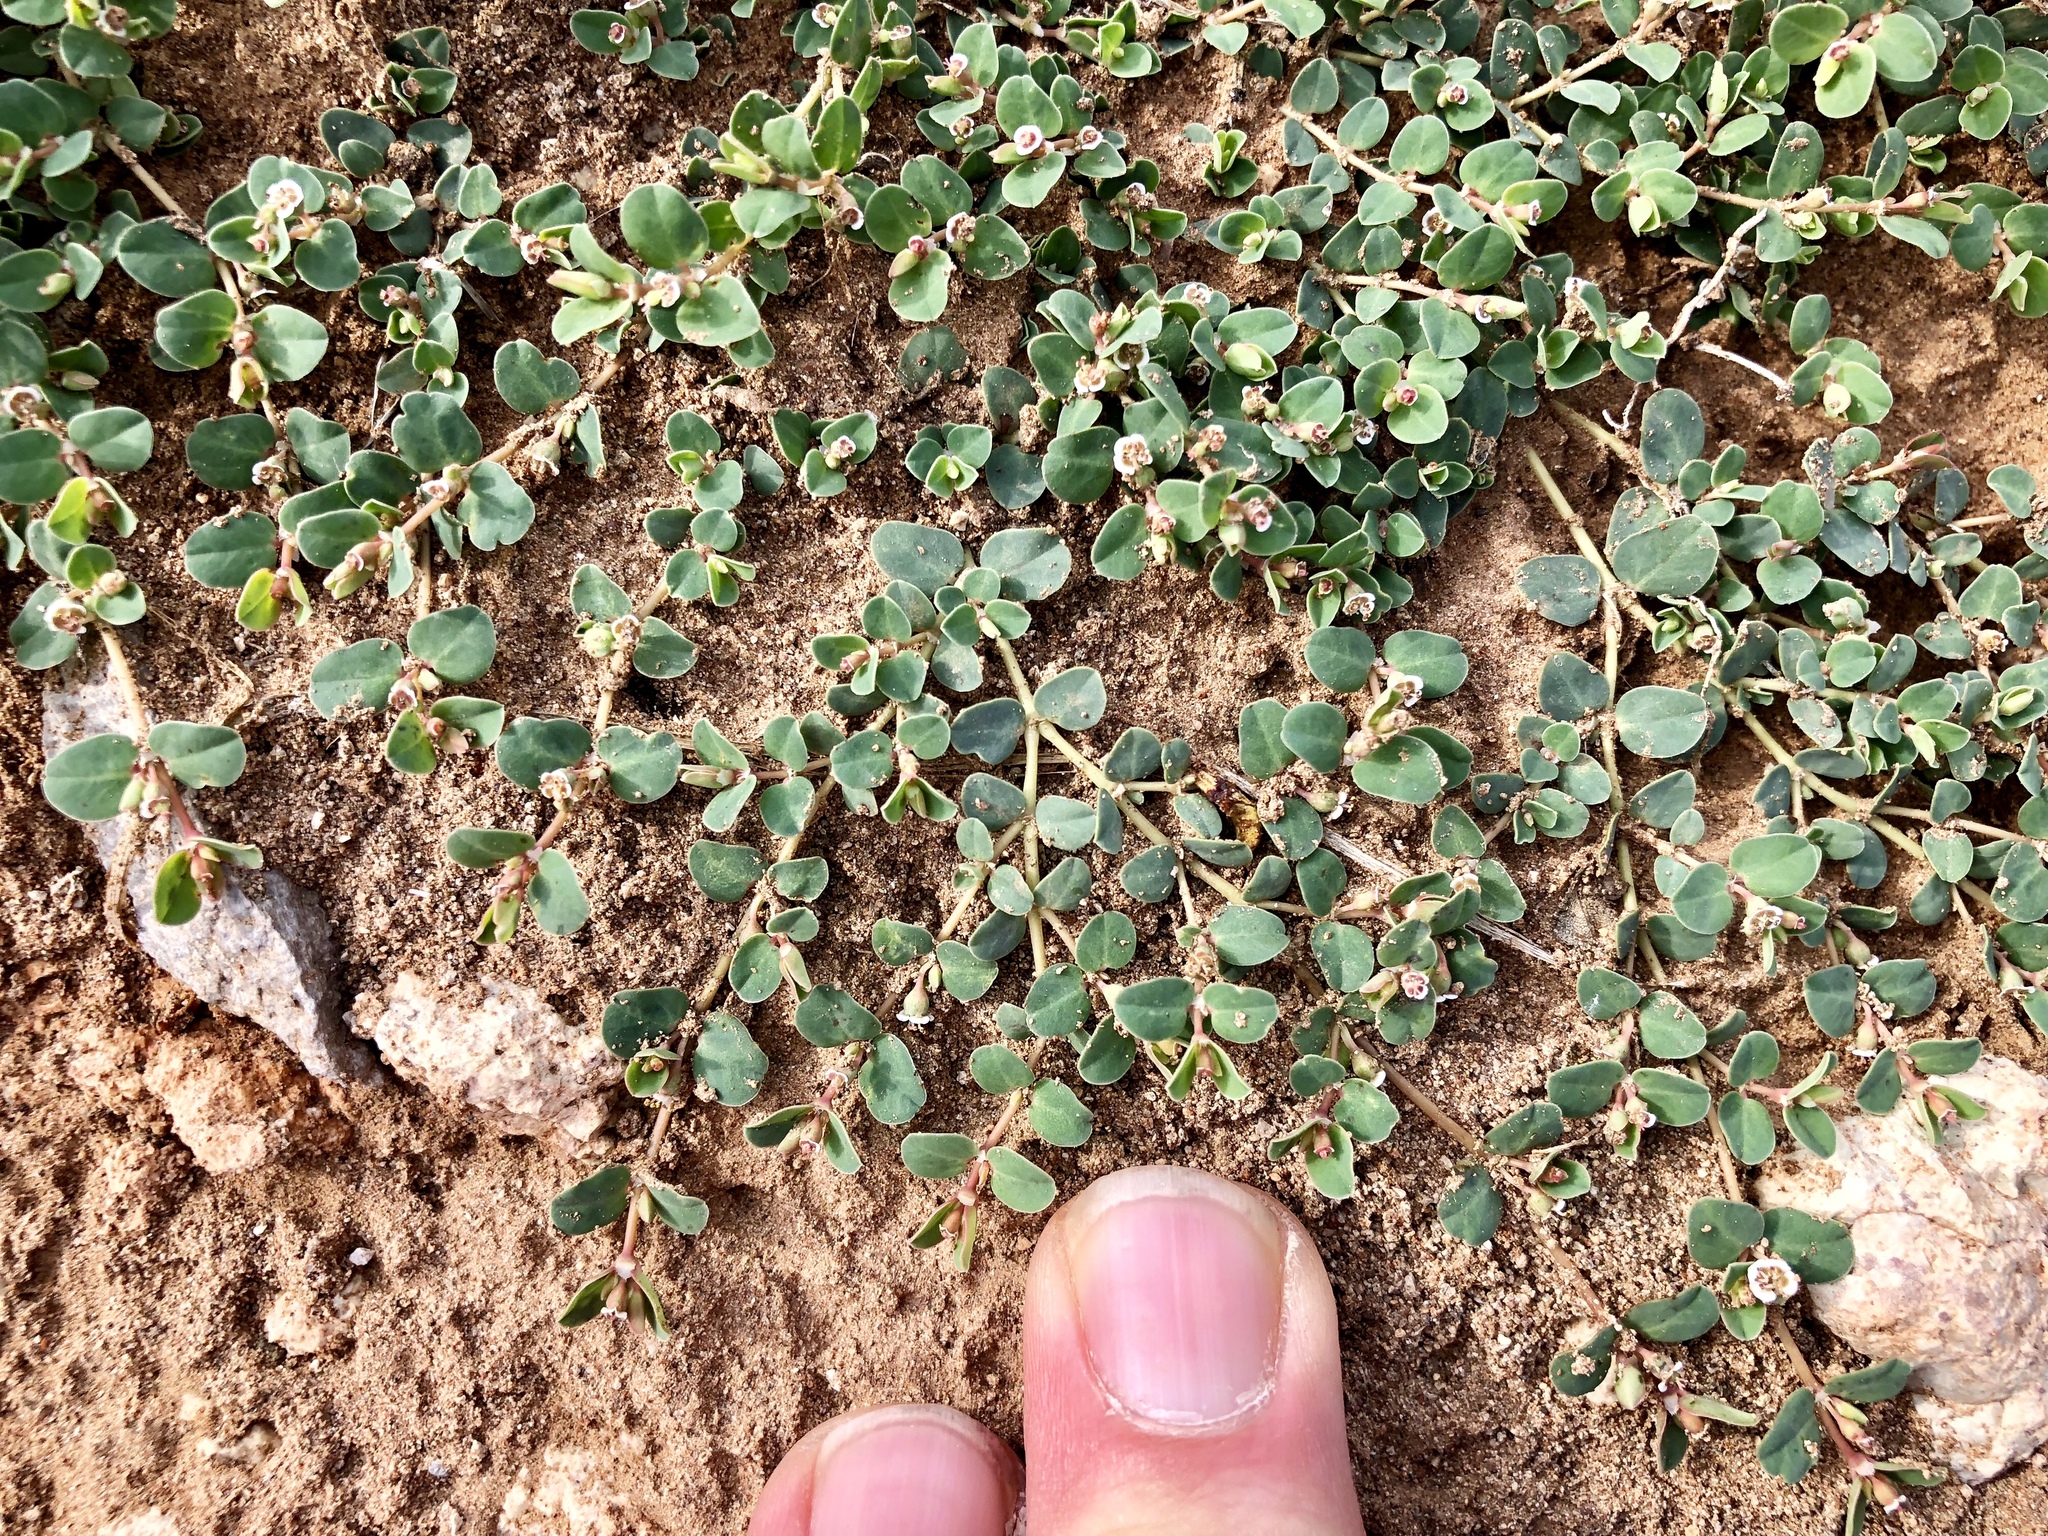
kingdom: Plantae
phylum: Tracheophyta
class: Magnoliopsida
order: Malpighiales
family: Euphorbiaceae
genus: Euphorbia
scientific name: Euphorbia albomarginata
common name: Whitemargin sandmat
